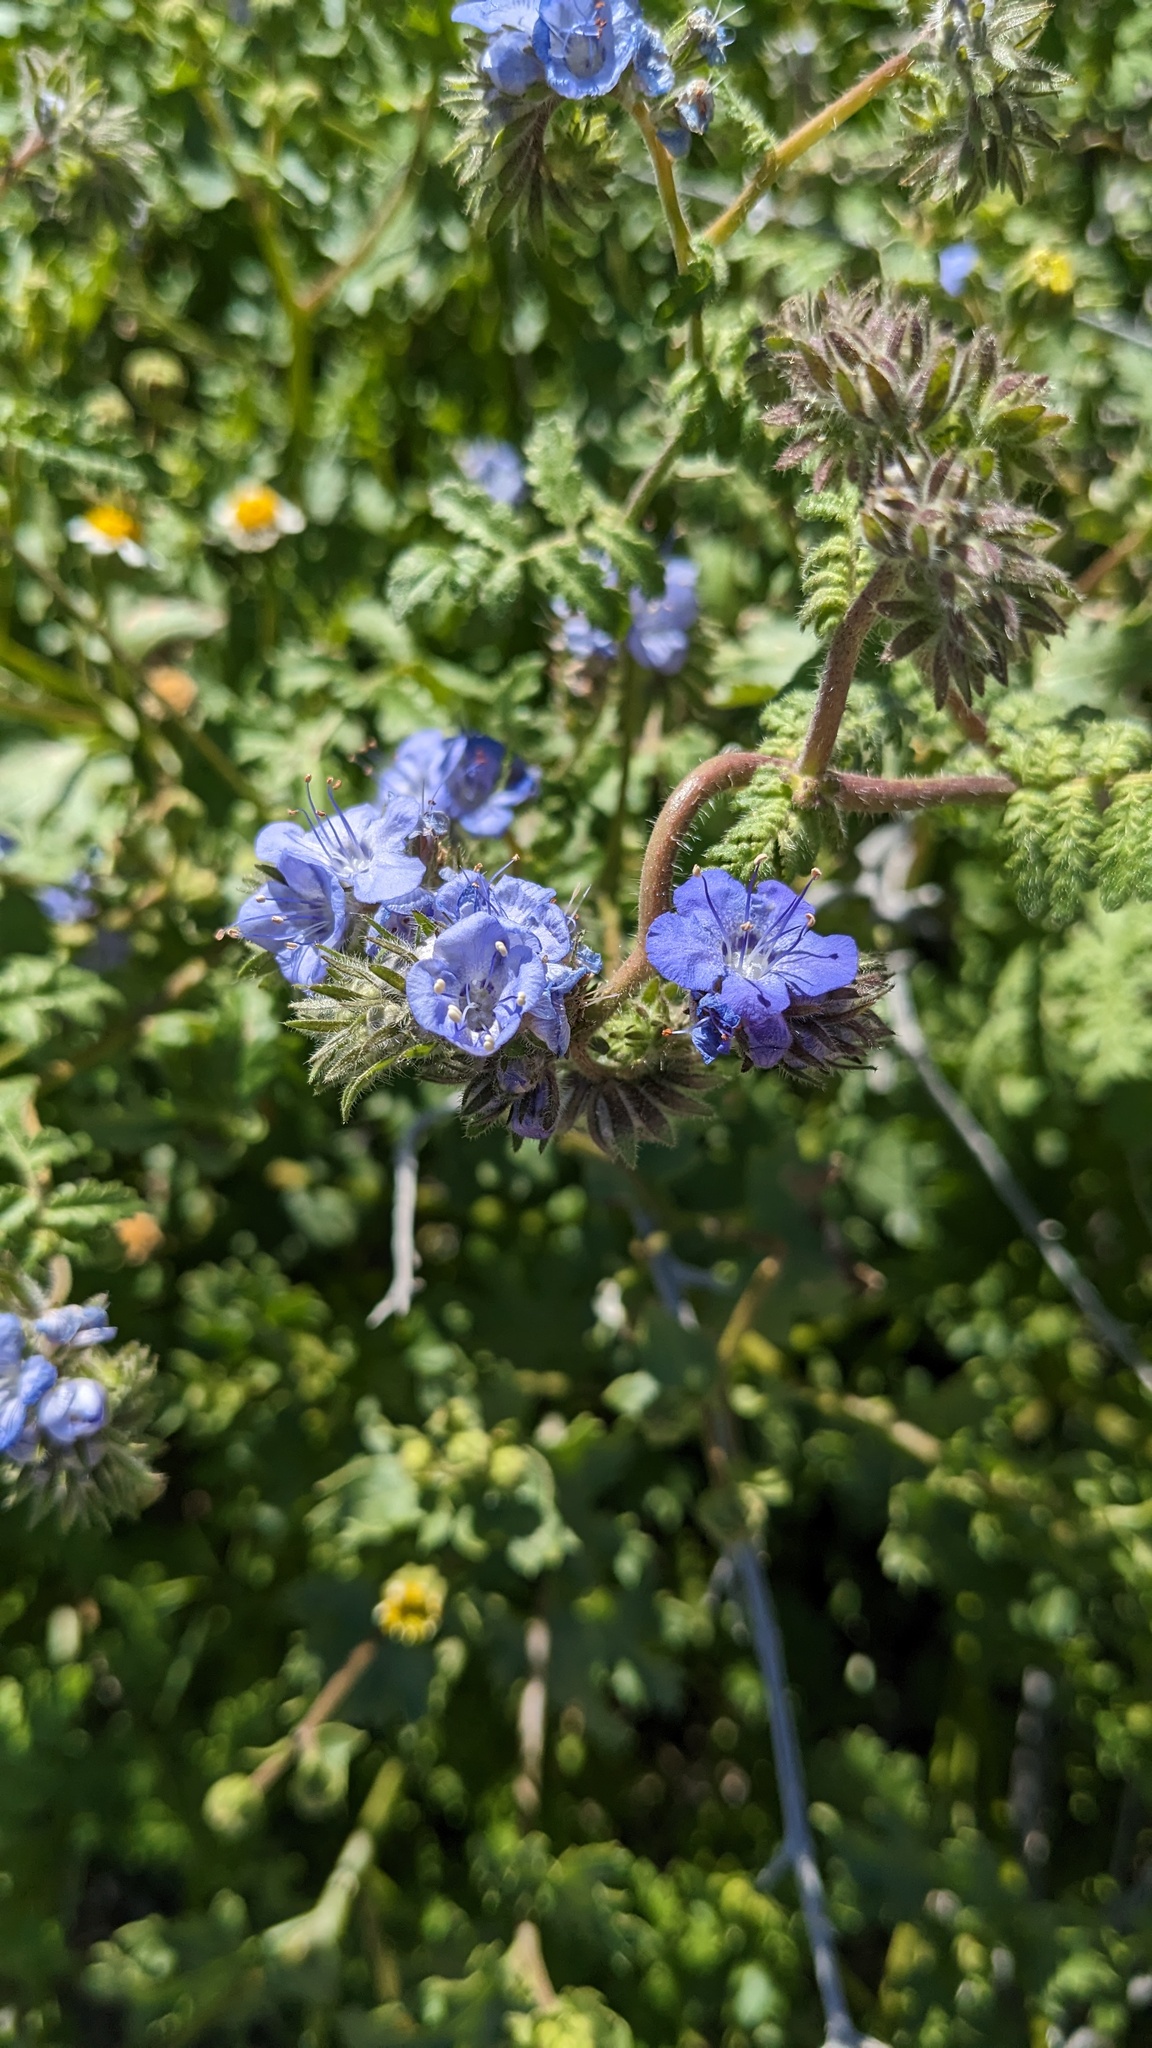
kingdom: Plantae
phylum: Tracheophyta
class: Magnoliopsida
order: Boraginales
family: Hydrophyllaceae
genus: Phacelia
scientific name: Phacelia distans
